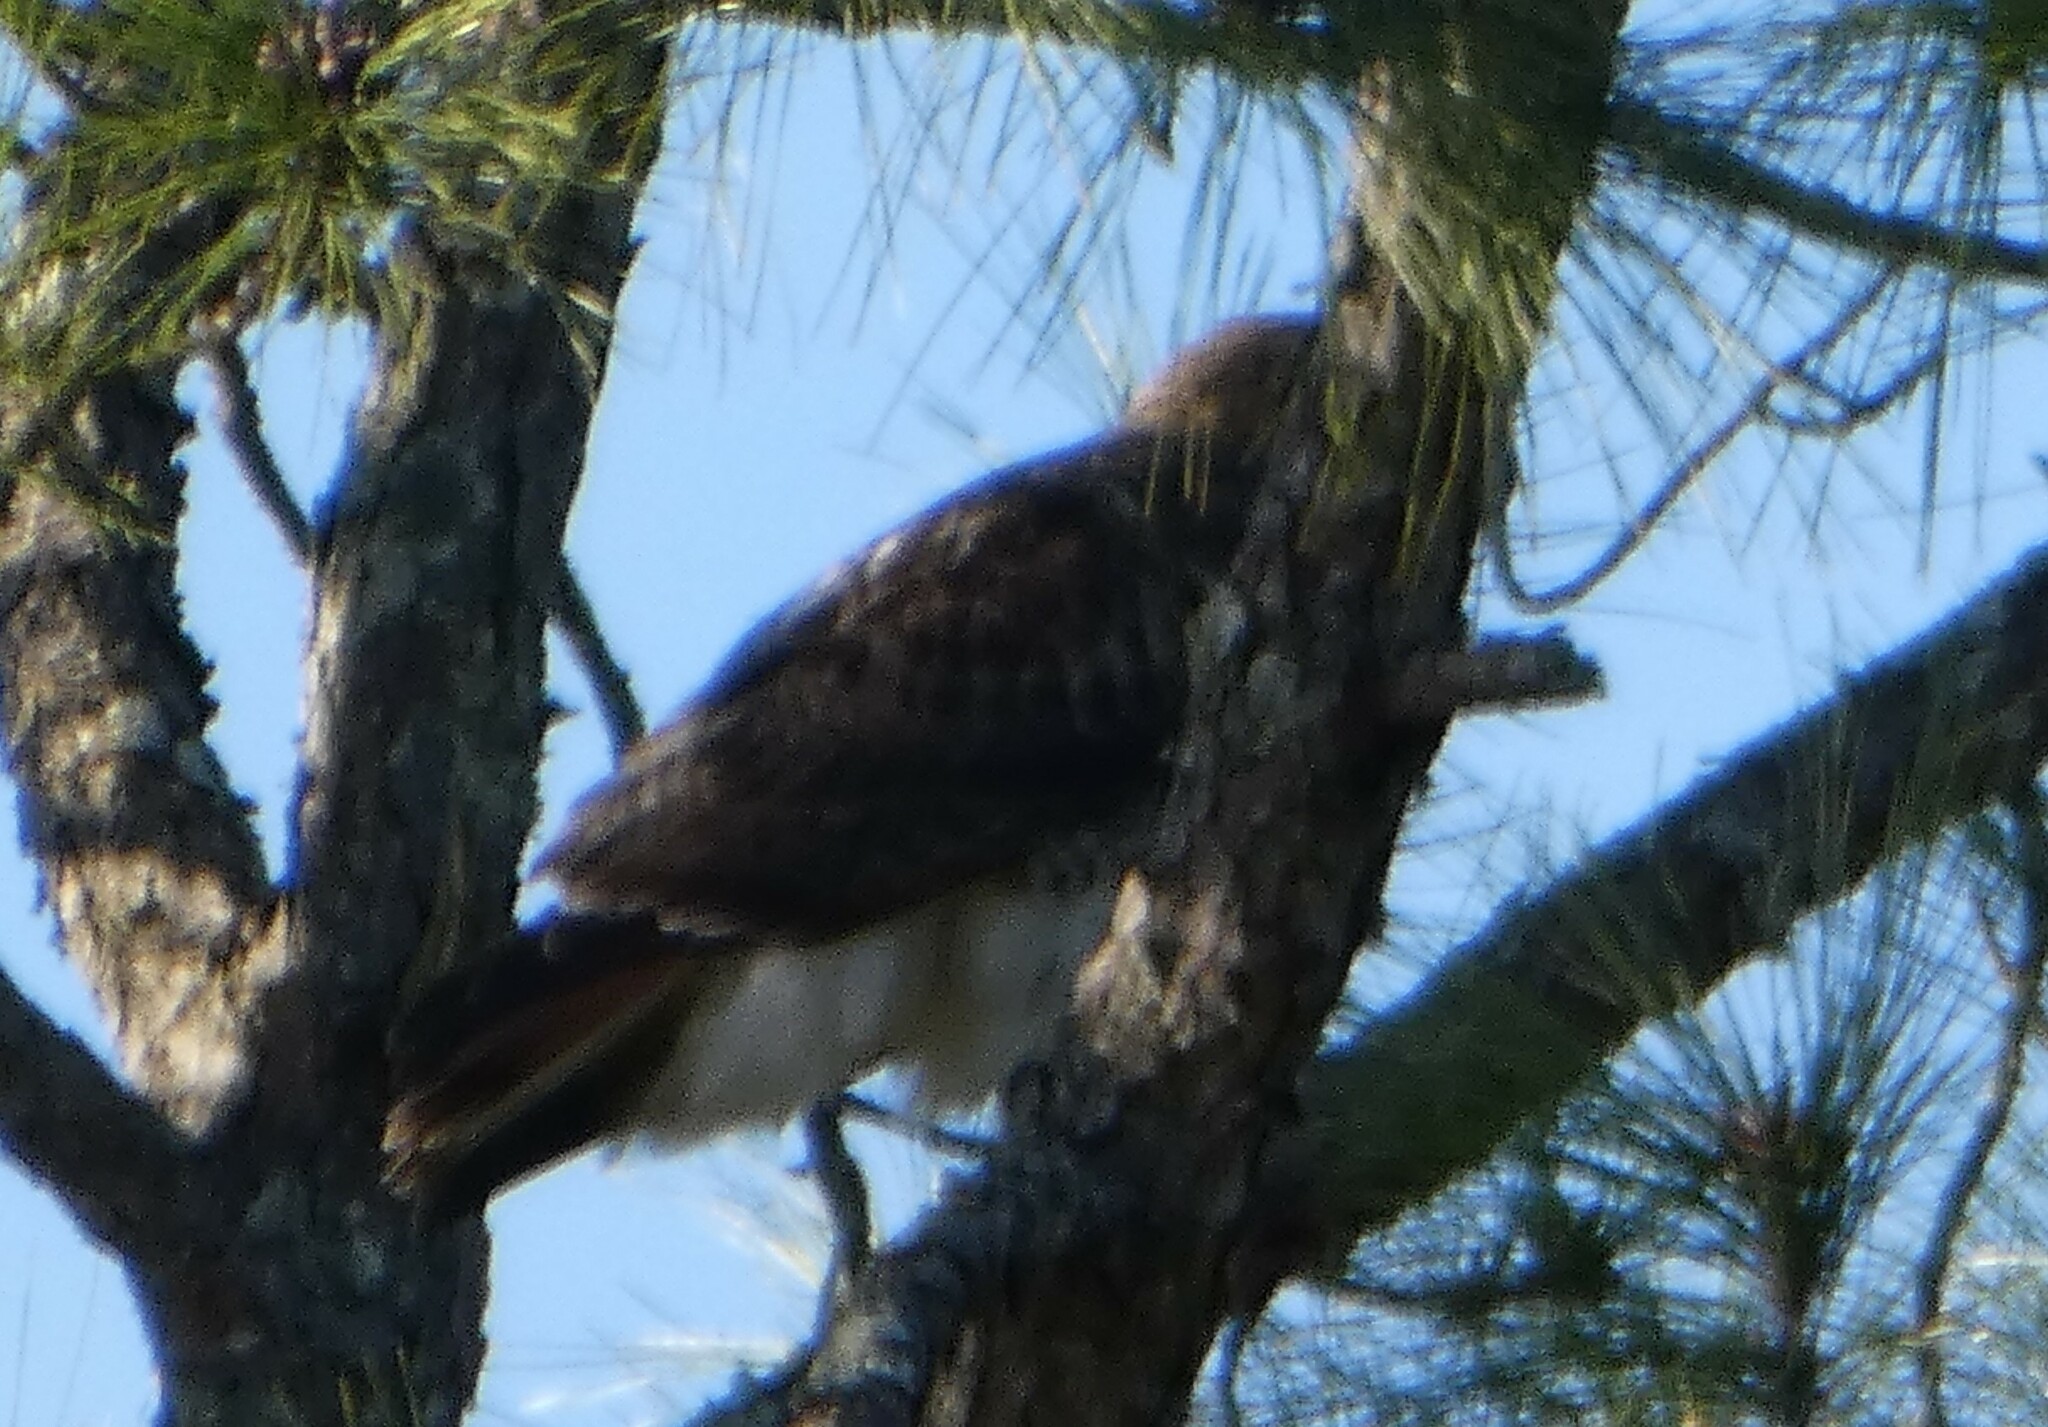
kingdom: Animalia
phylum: Chordata
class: Aves
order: Accipitriformes
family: Accipitridae
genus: Buteo
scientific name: Buteo jamaicensis
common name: Red-tailed hawk
